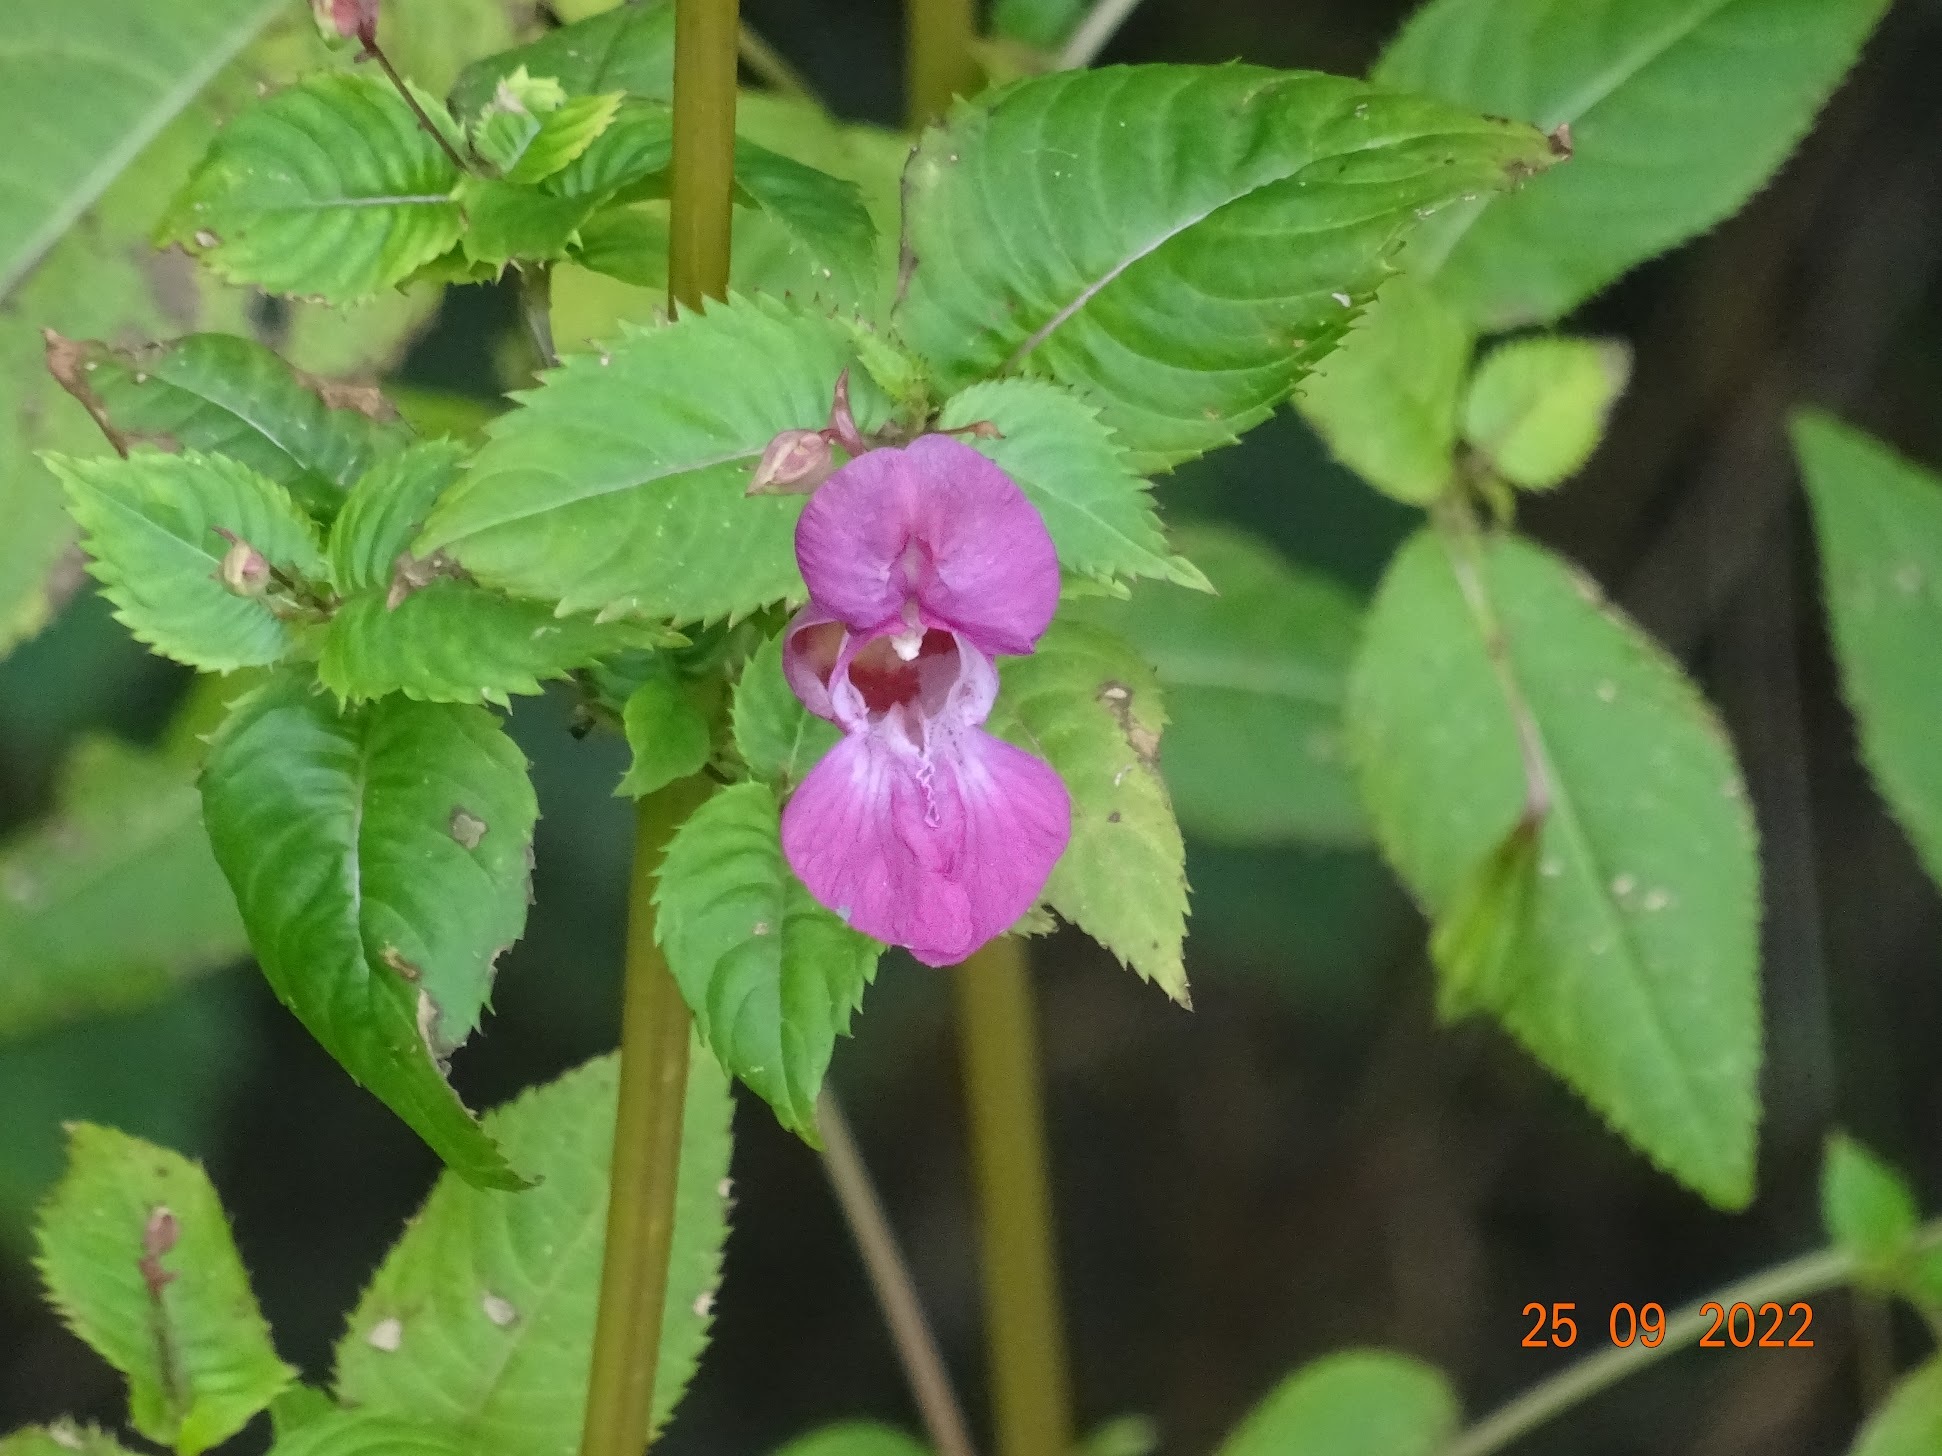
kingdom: Plantae
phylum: Tracheophyta
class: Magnoliopsida
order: Ericales
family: Balsaminaceae
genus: Impatiens
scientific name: Impatiens glandulifera
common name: Himalayan balsam
